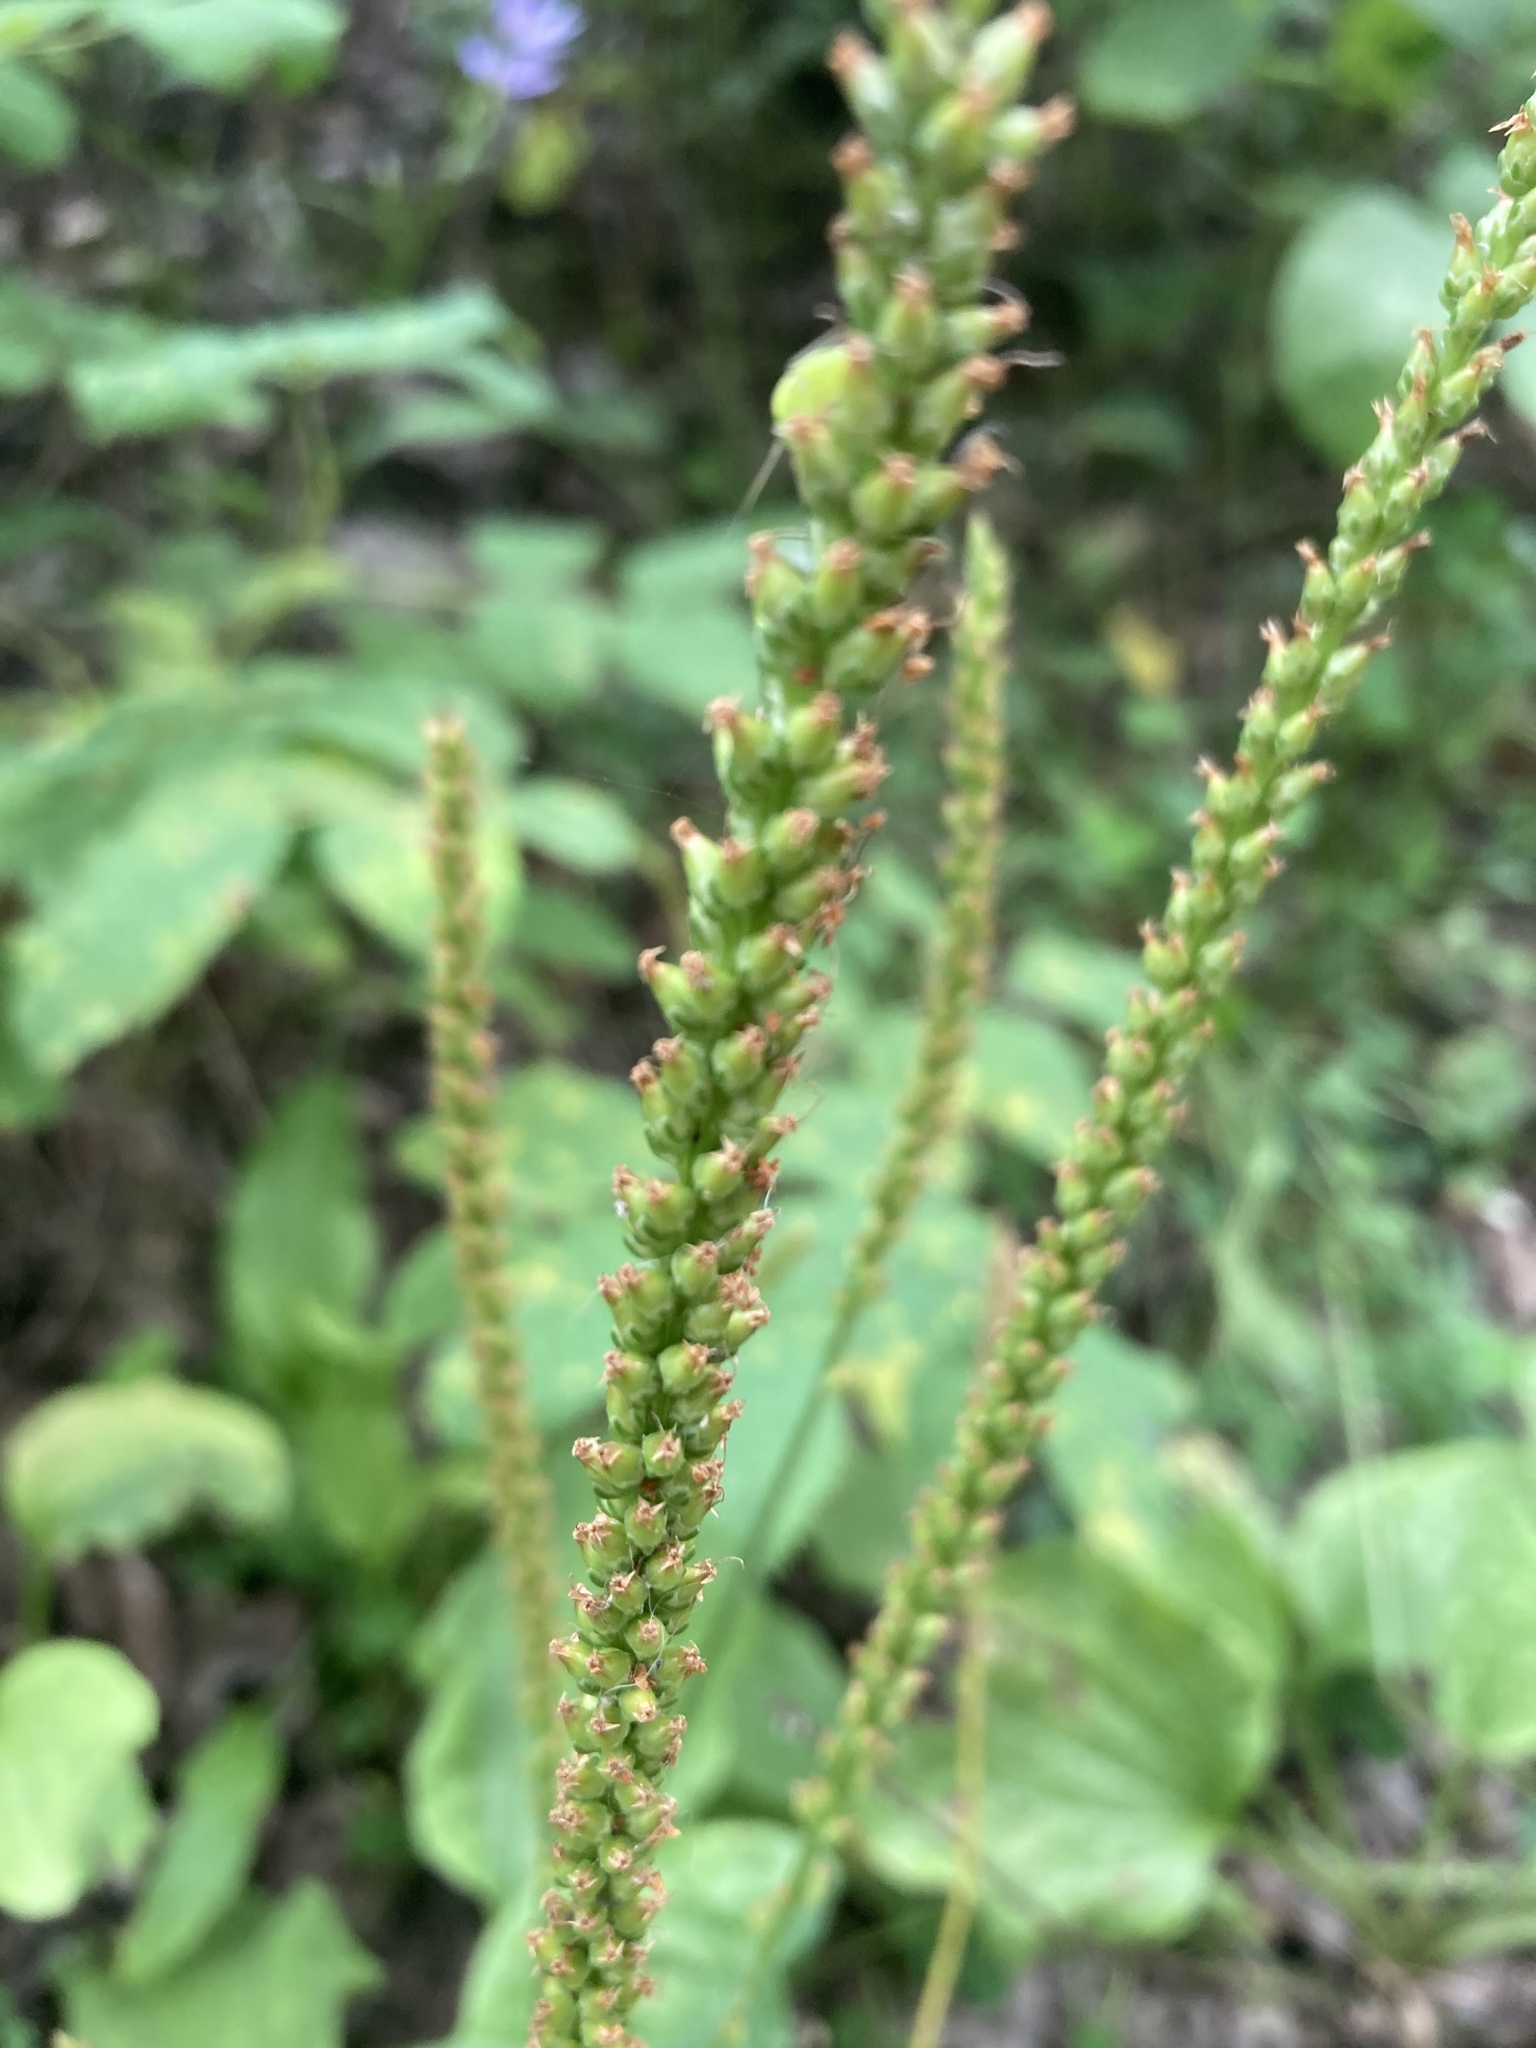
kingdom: Plantae
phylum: Tracheophyta
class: Magnoliopsida
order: Lamiales
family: Plantaginaceae
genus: Plantago
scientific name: Plantago major
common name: Common plantain
